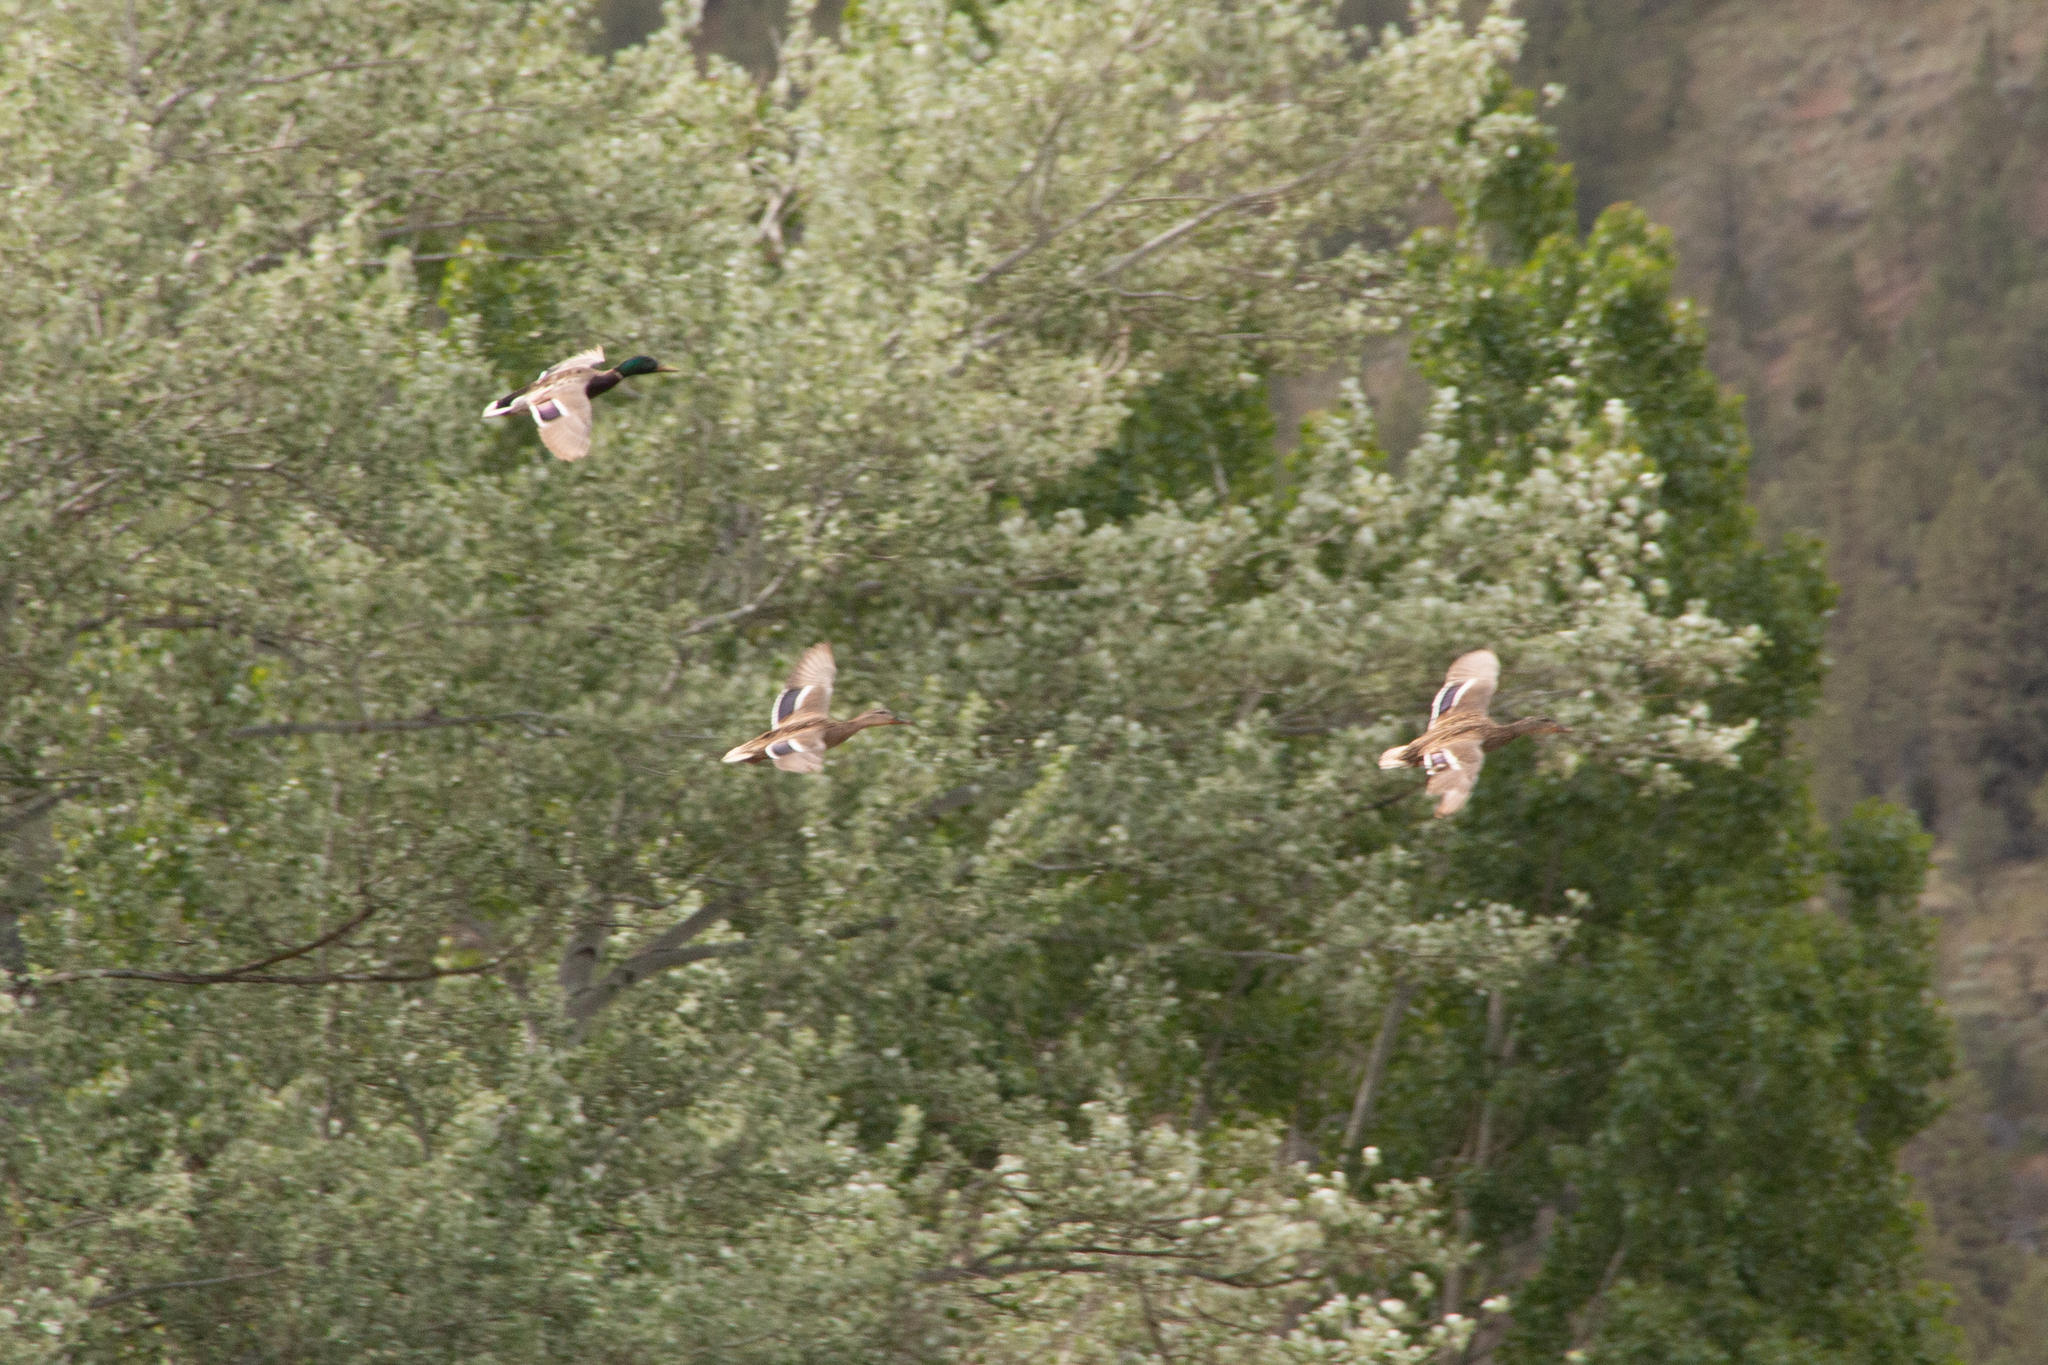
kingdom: Animalia
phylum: Chordata
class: Aves
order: Anseriformes
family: Anatidae
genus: Anas
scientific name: Anas platyrhynchos
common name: Mallard
